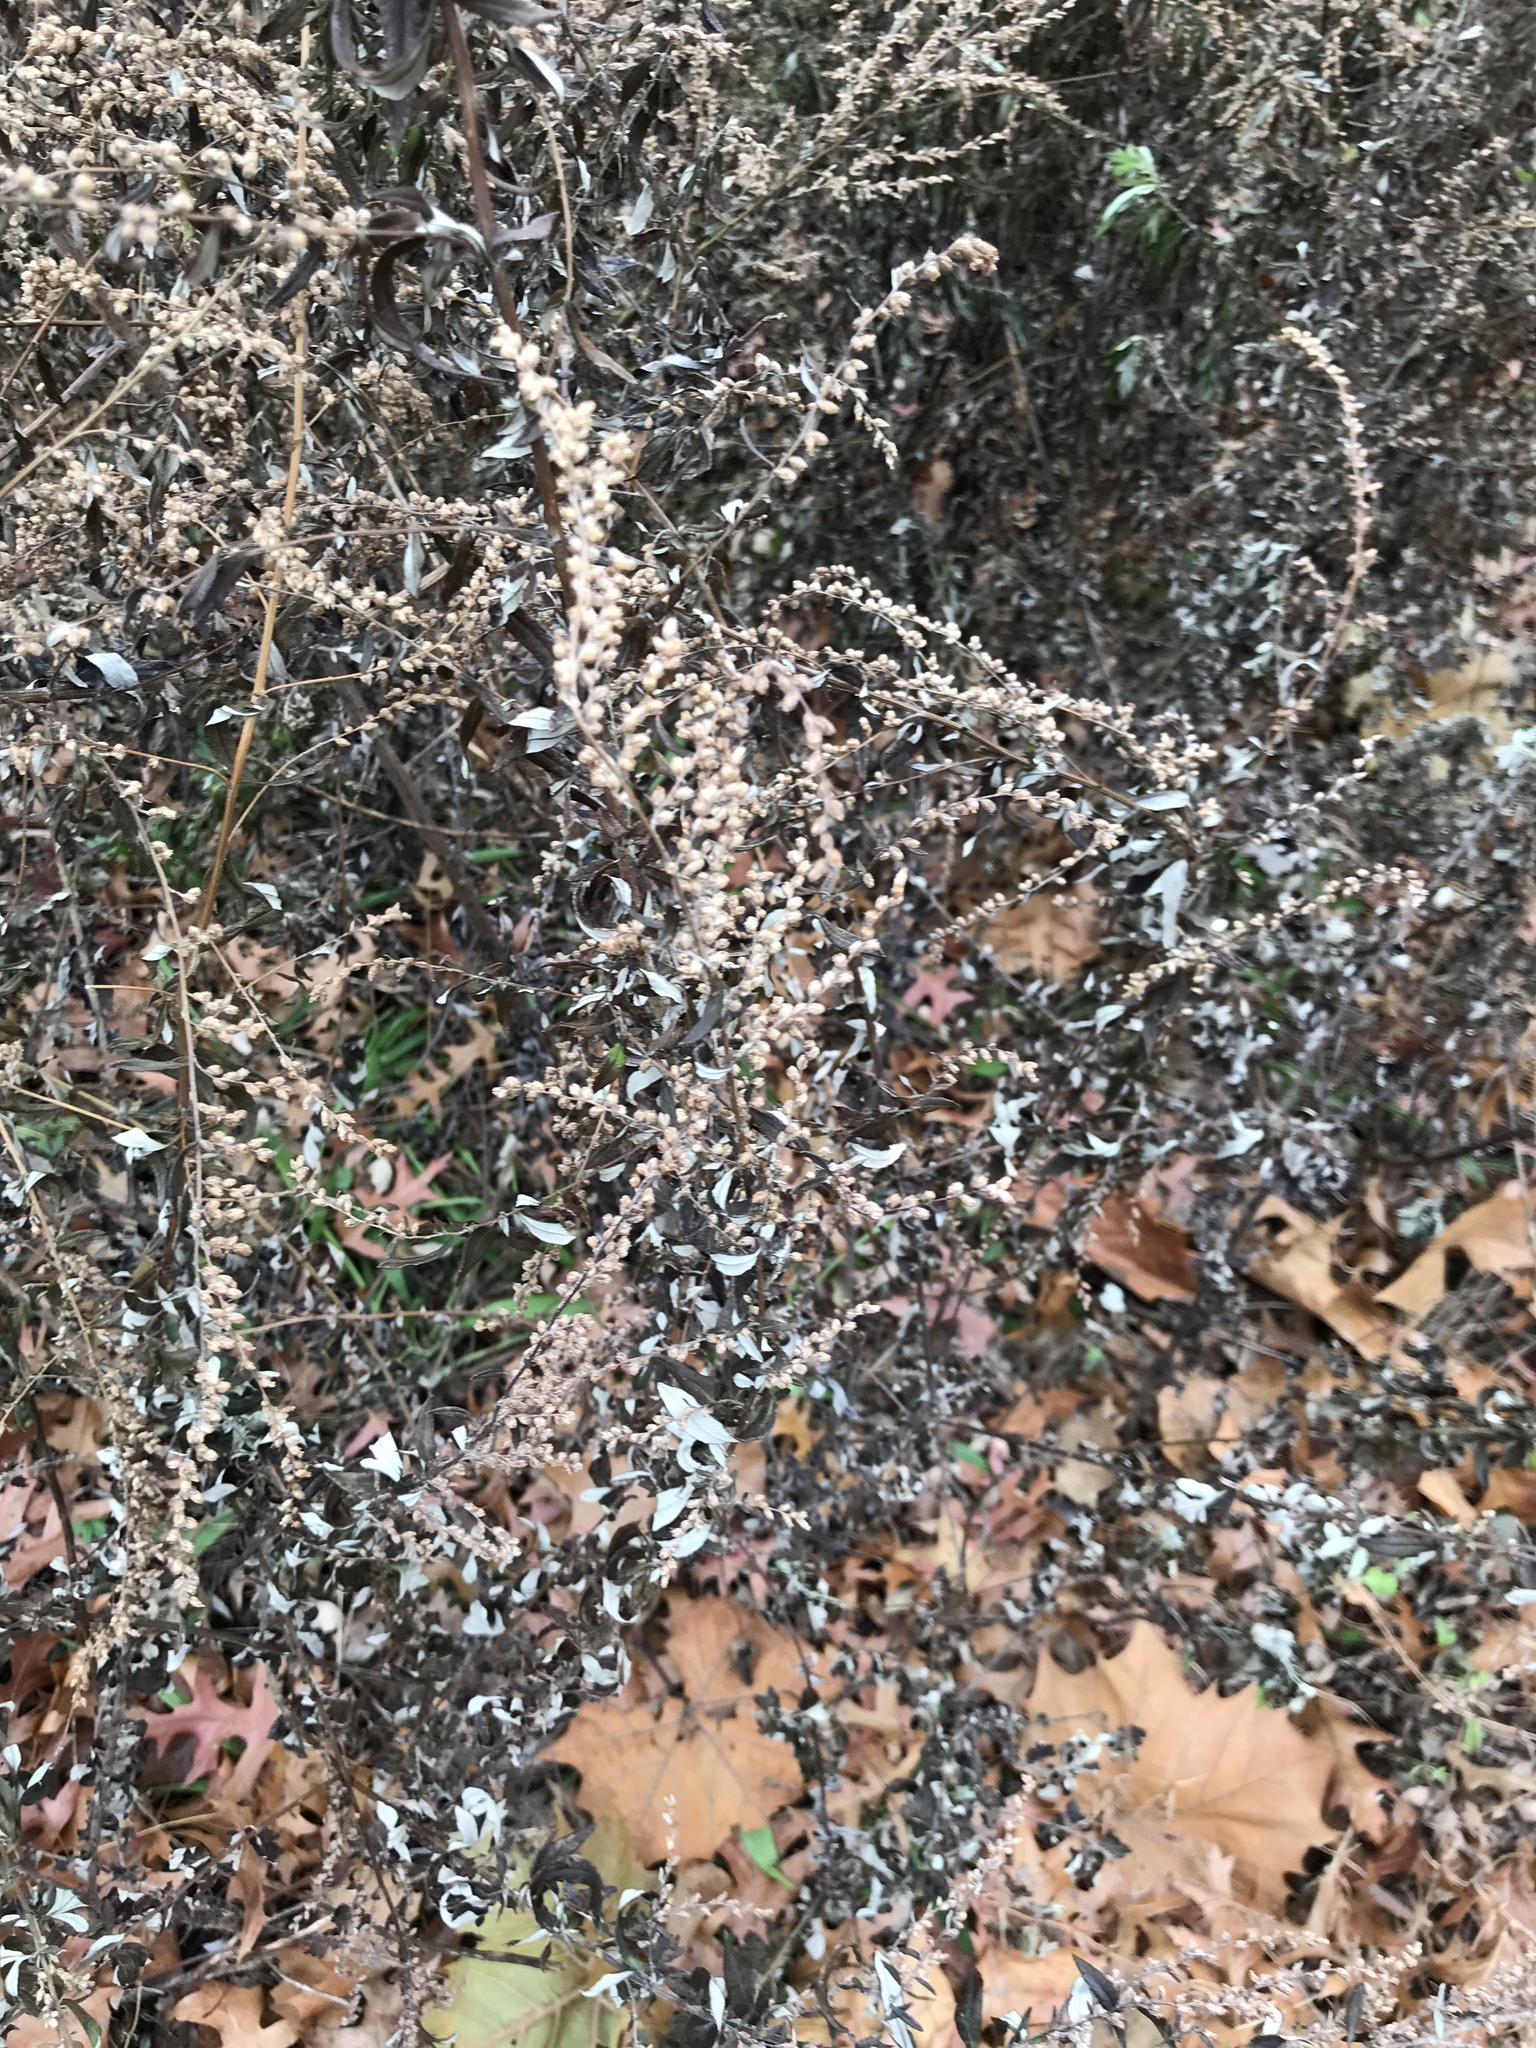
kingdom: Plantae
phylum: Tracheophyta
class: Magnoliopsida
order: Asterales
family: Asteraceae
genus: Artemisia
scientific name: Artemisia vulgaris
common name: Mugwort
